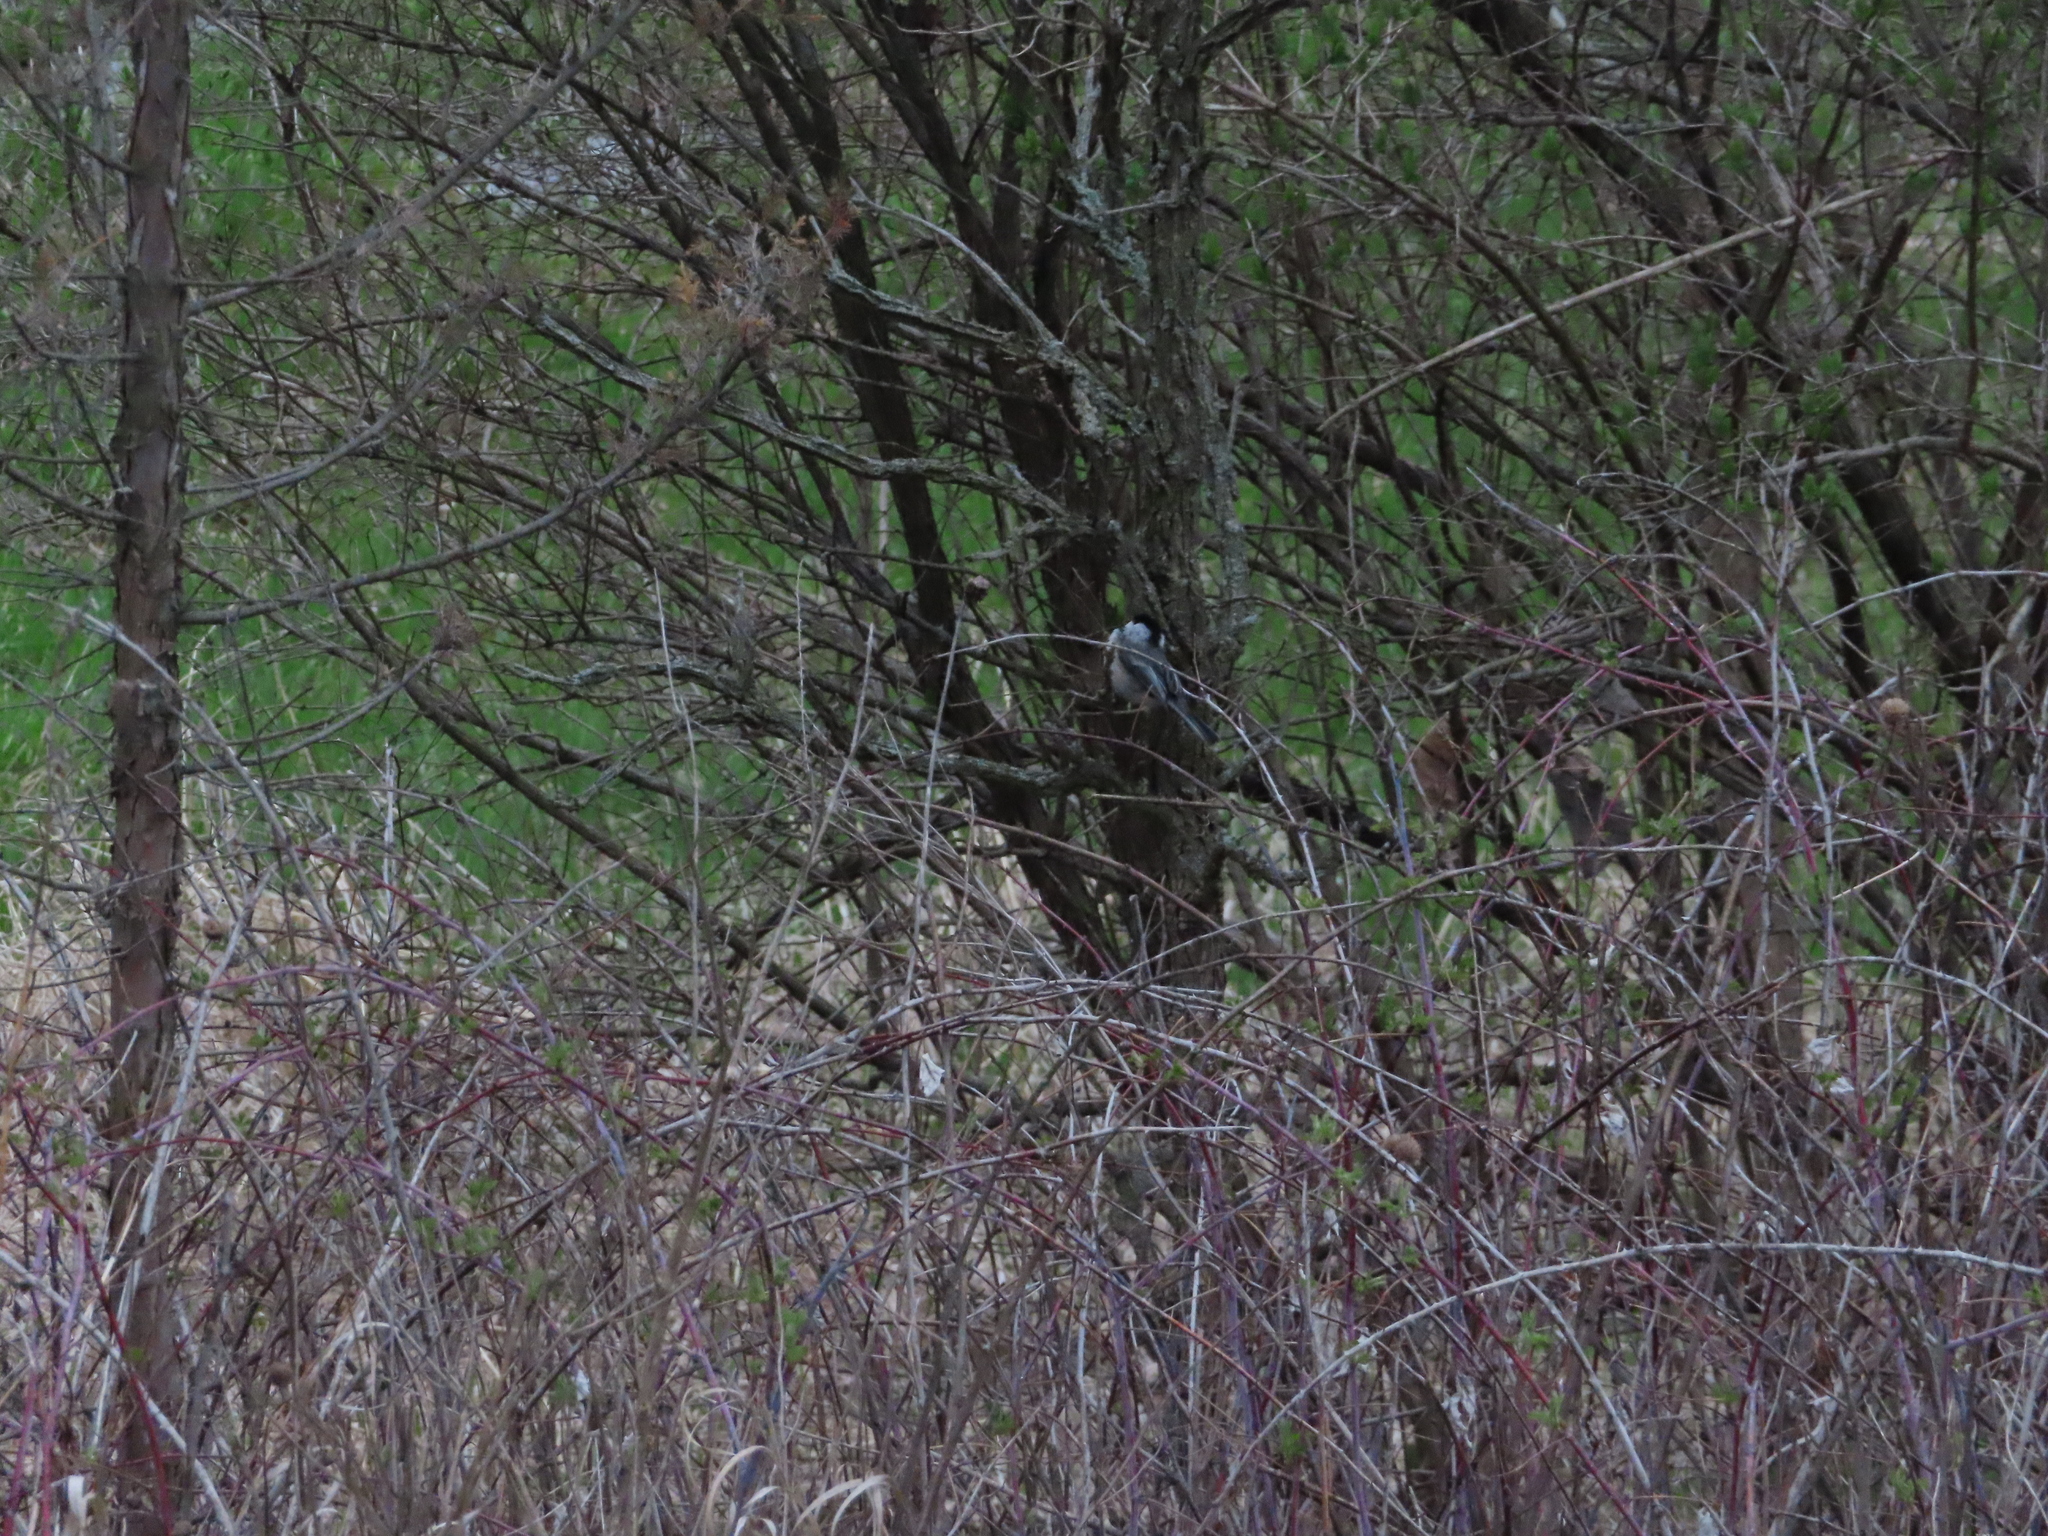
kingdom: Animalia
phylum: Chordata
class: Aves
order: Passeriformes
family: Paridae
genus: Poecile
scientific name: Poecile atricapillus
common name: Black-capped chickadee
